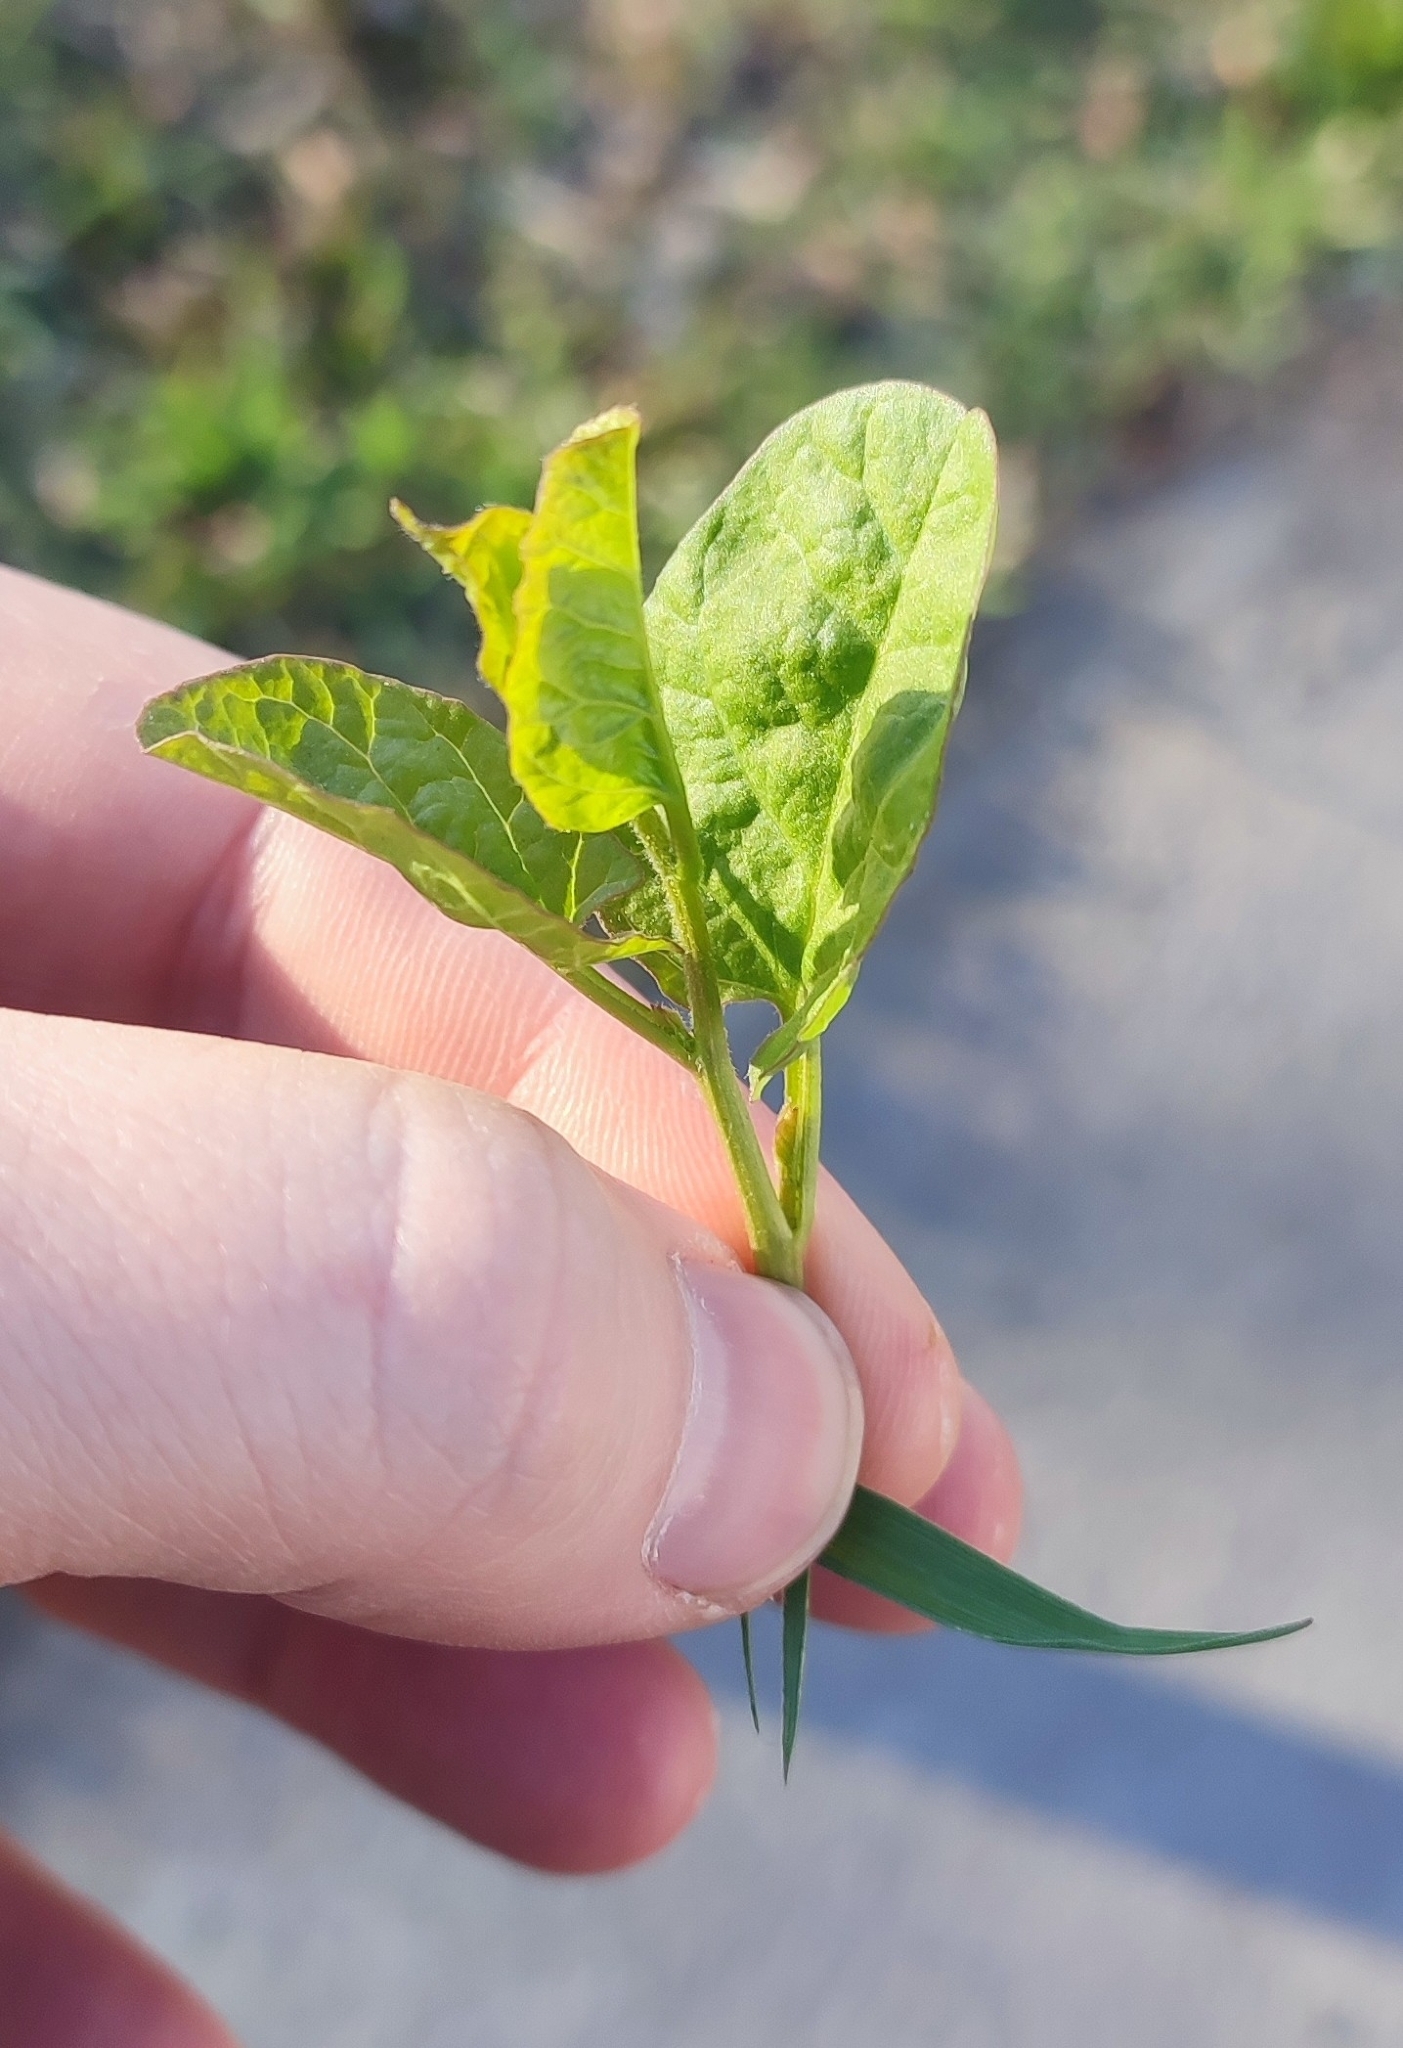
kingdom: Plantae
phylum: Tracheophyta
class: Magnoliopsida
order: Solanales
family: Convolvulaceae
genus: Convolvulus
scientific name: Convolvulus arvensis
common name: Field bindweed
